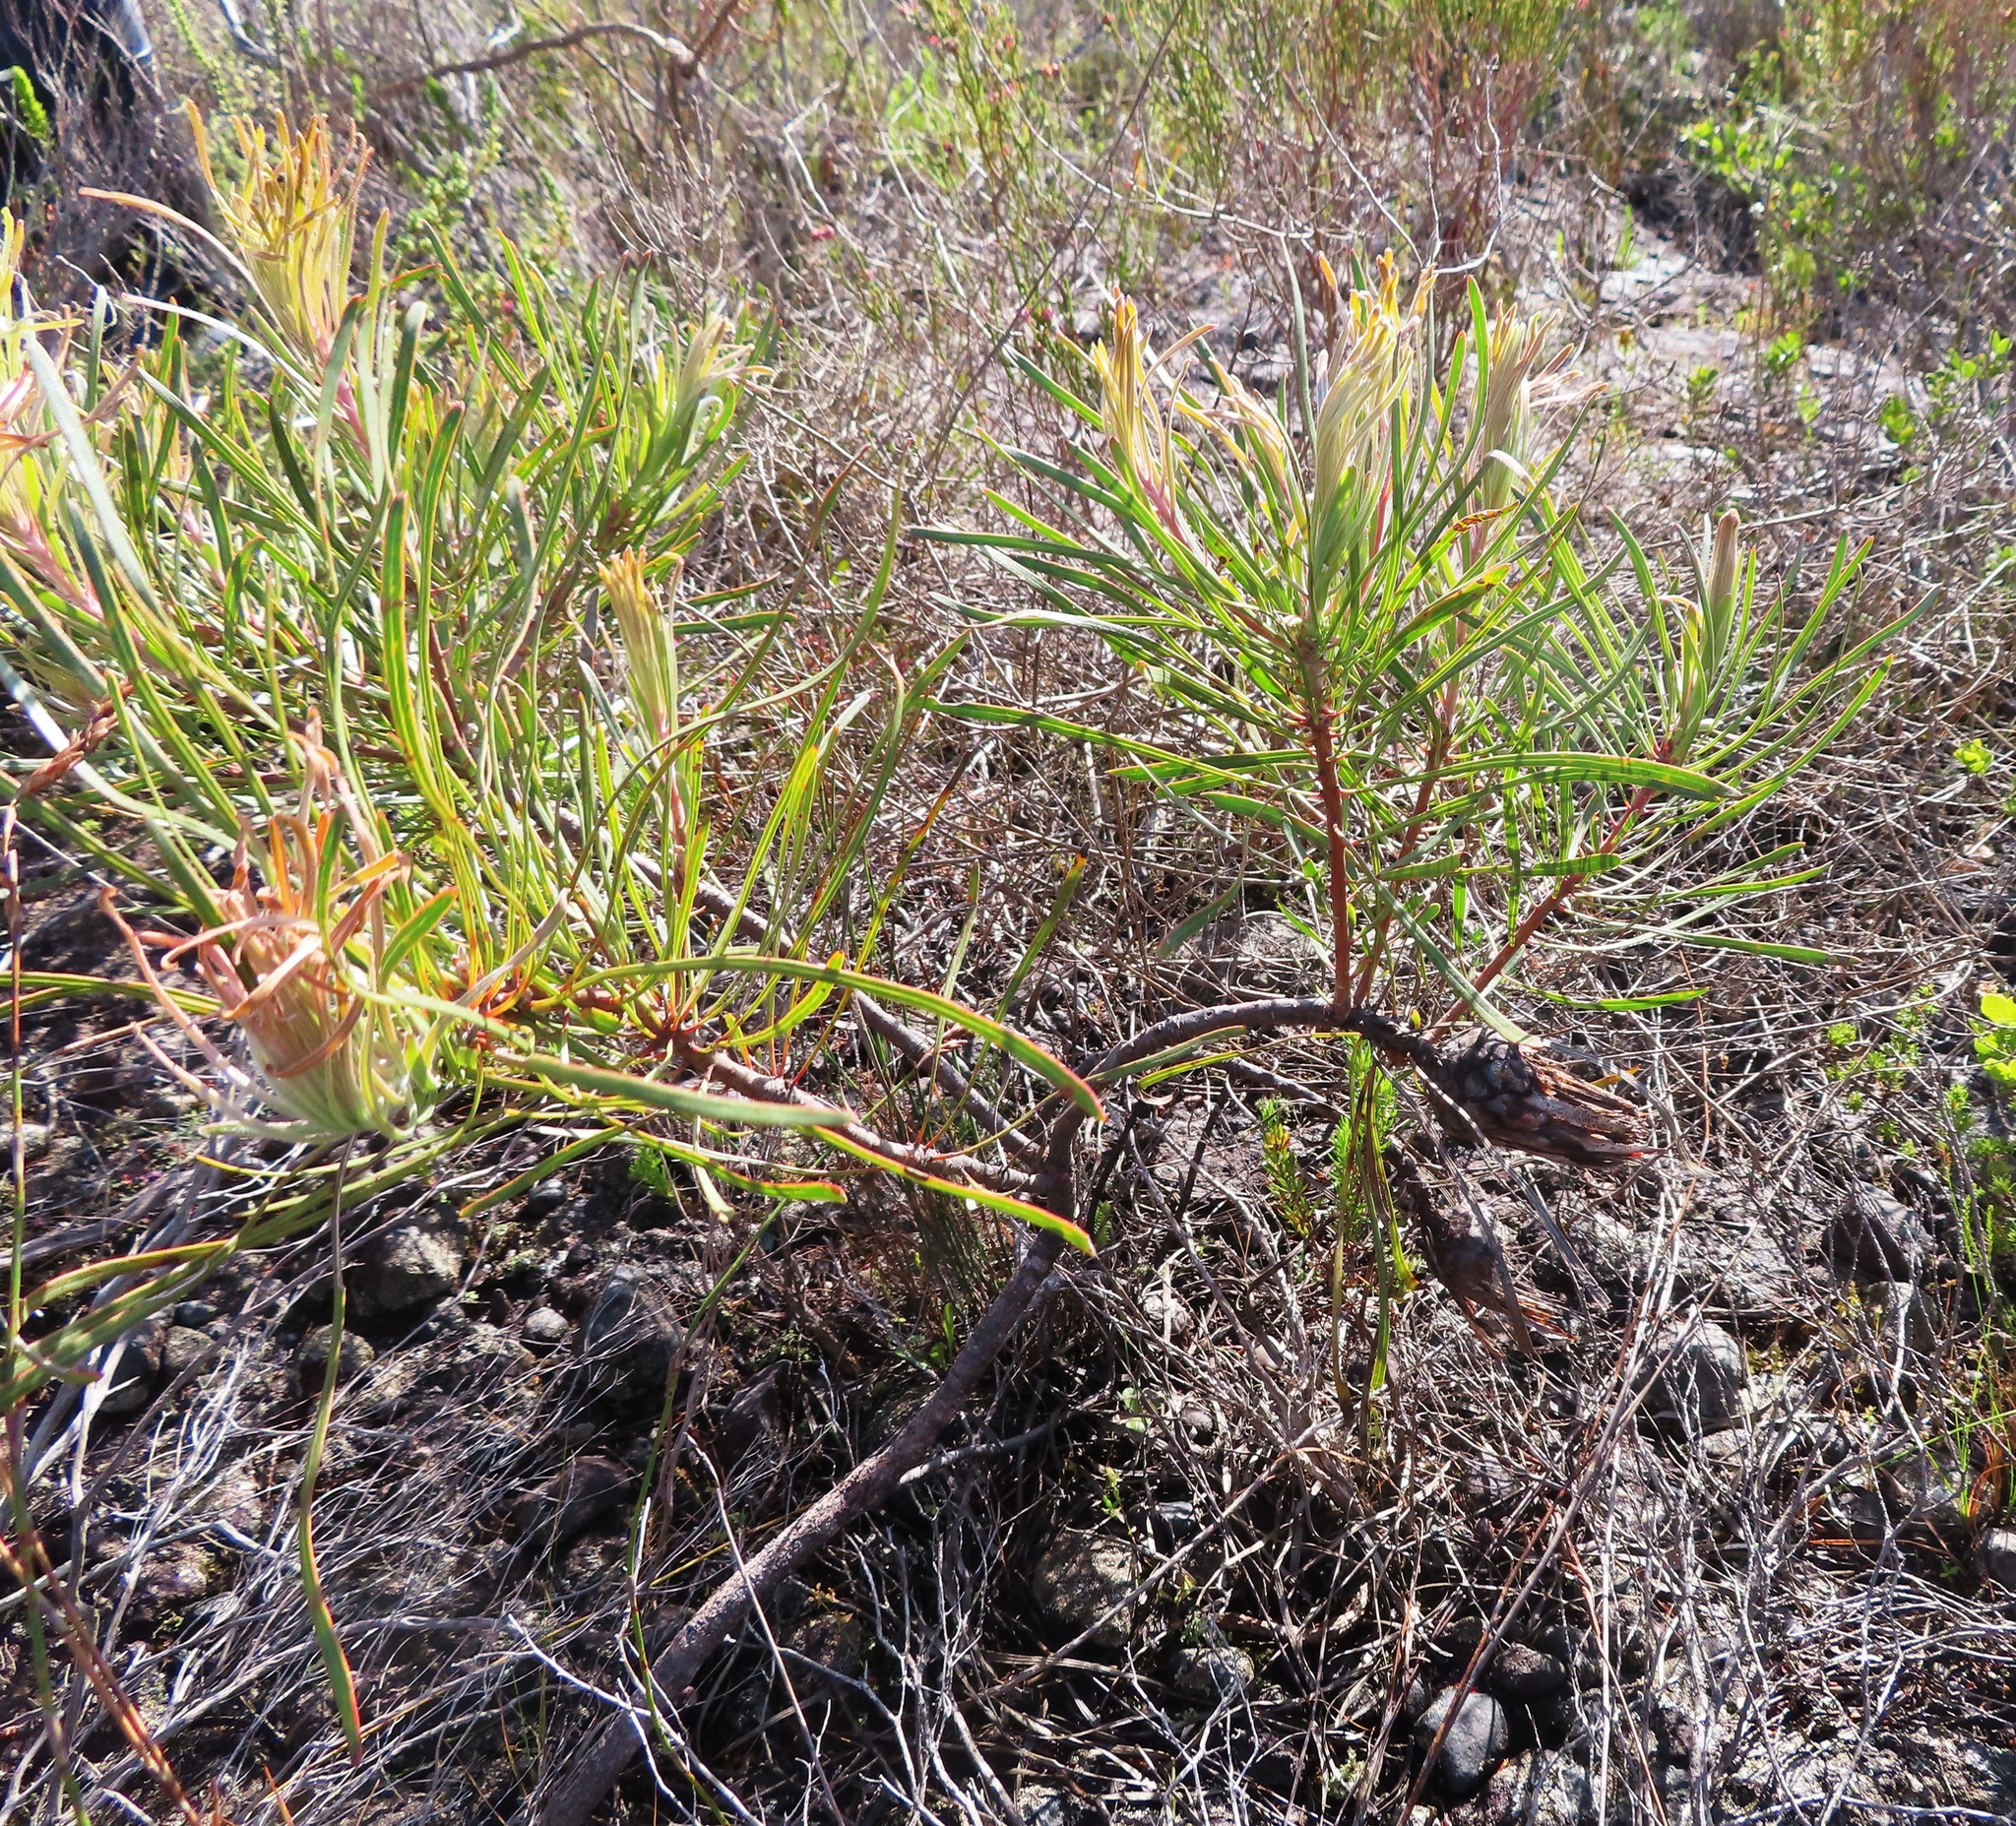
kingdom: Plantae
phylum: Tracheophyta
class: Magnoliopsida
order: Proteales
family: Proteaceae
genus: Protea
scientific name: Protea pudens
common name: Bashful sugarbush
